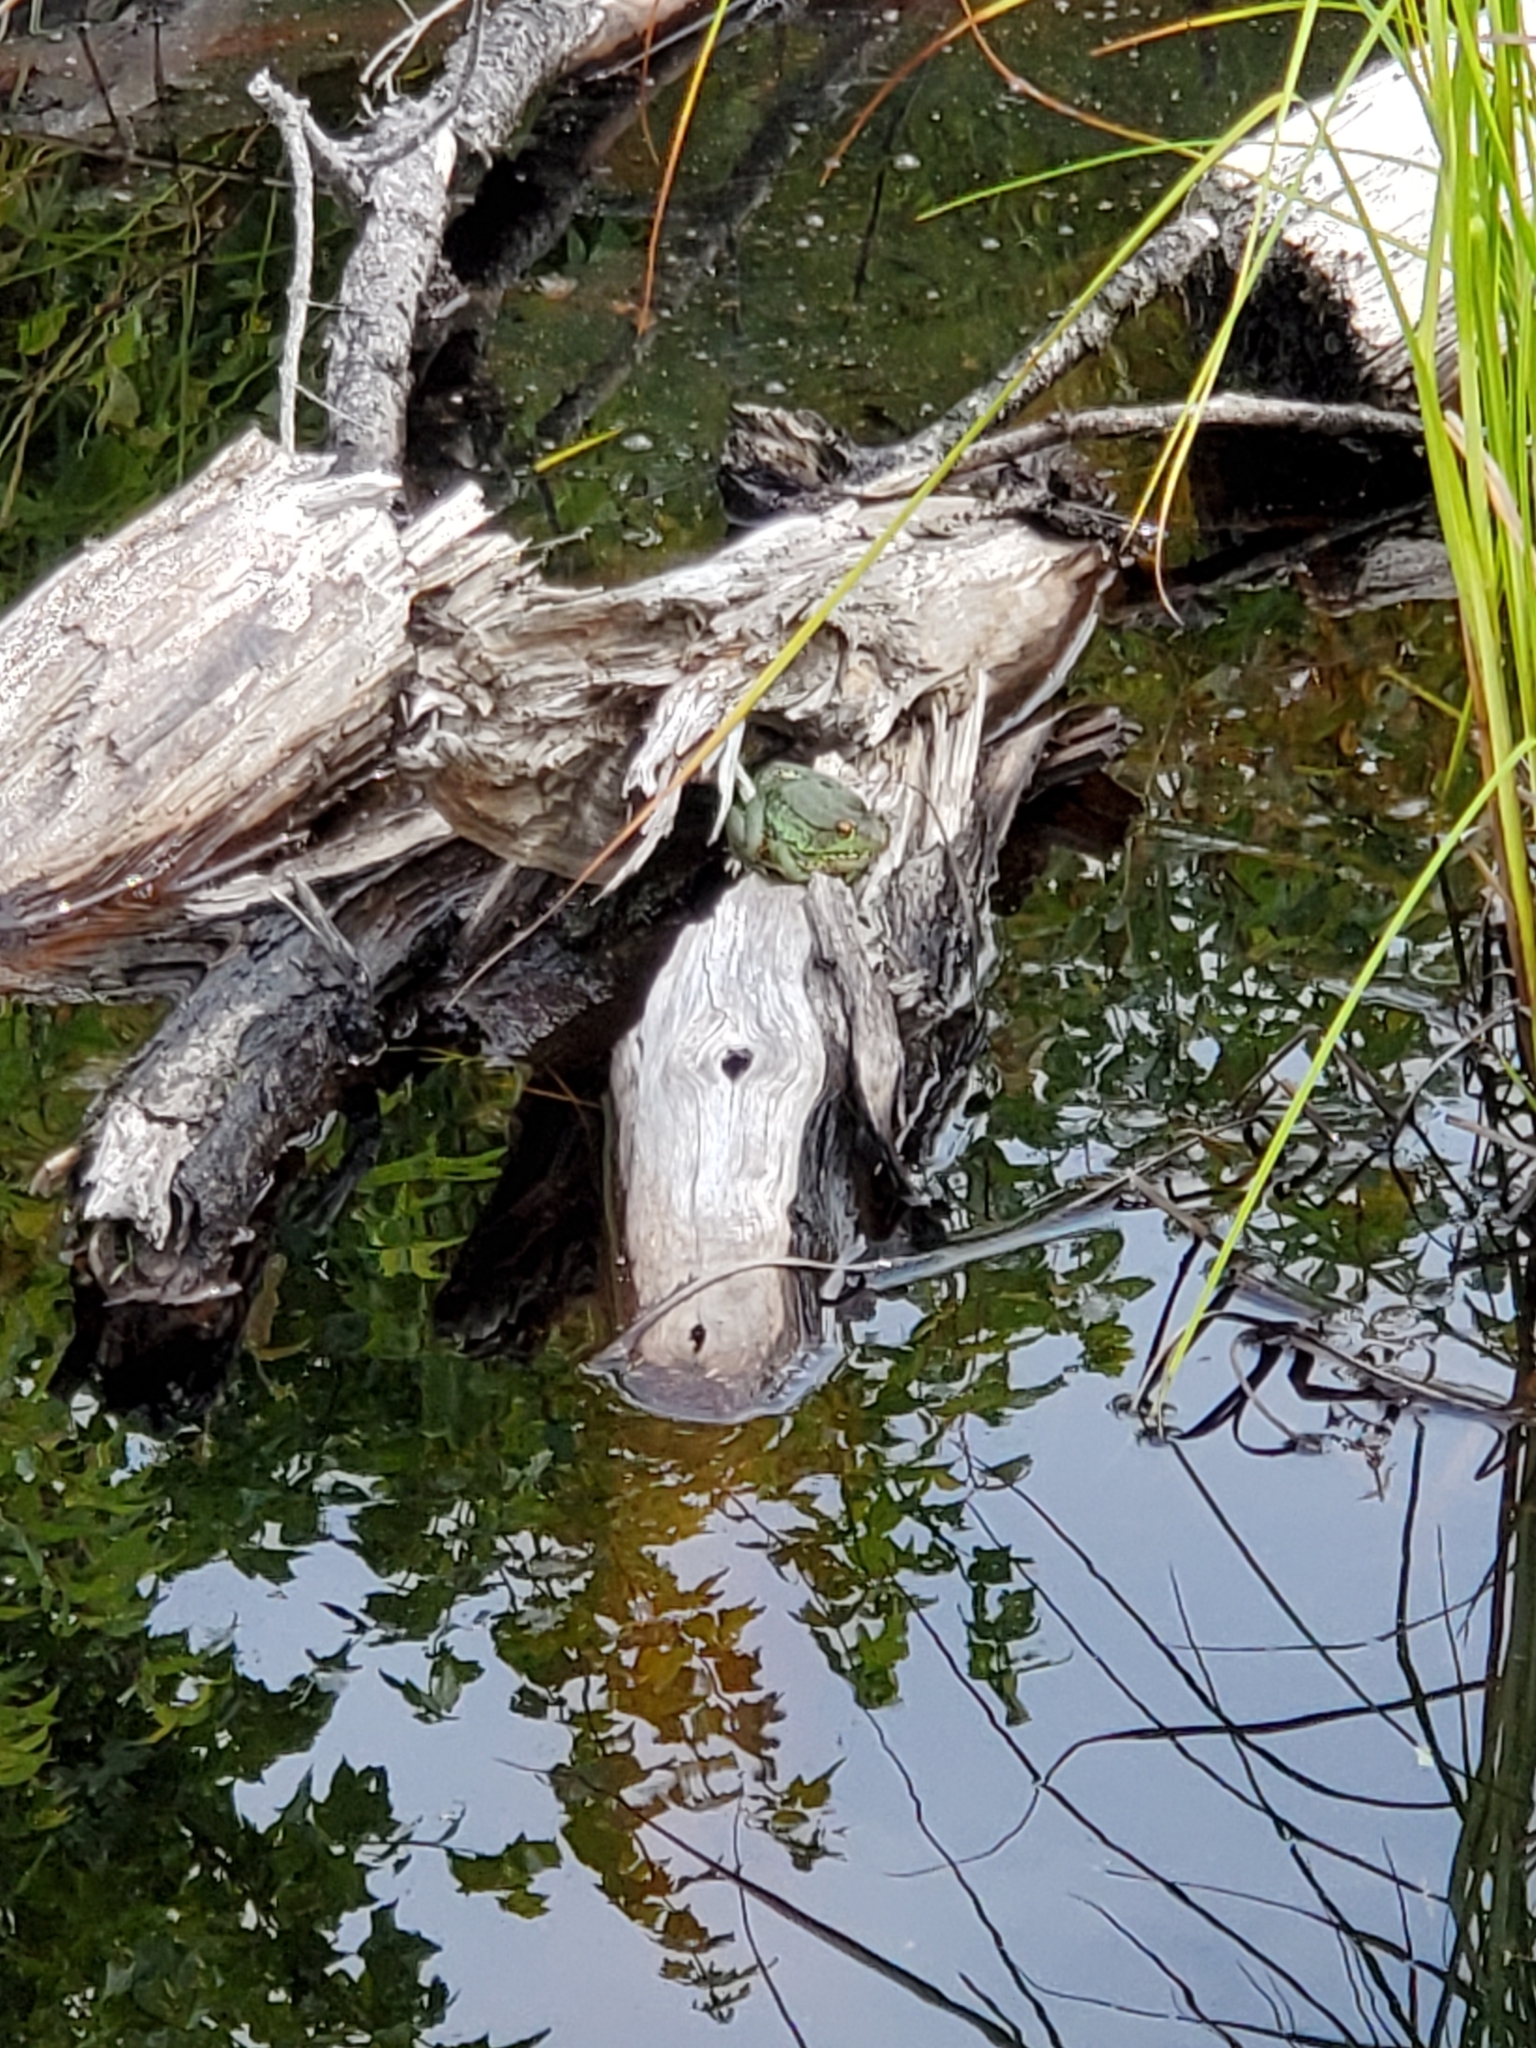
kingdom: Animalia
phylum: Chordata
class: Amphibia
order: Anura
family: Ranidae
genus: Lithobates
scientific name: Lithobates clamitans
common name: Green frog
